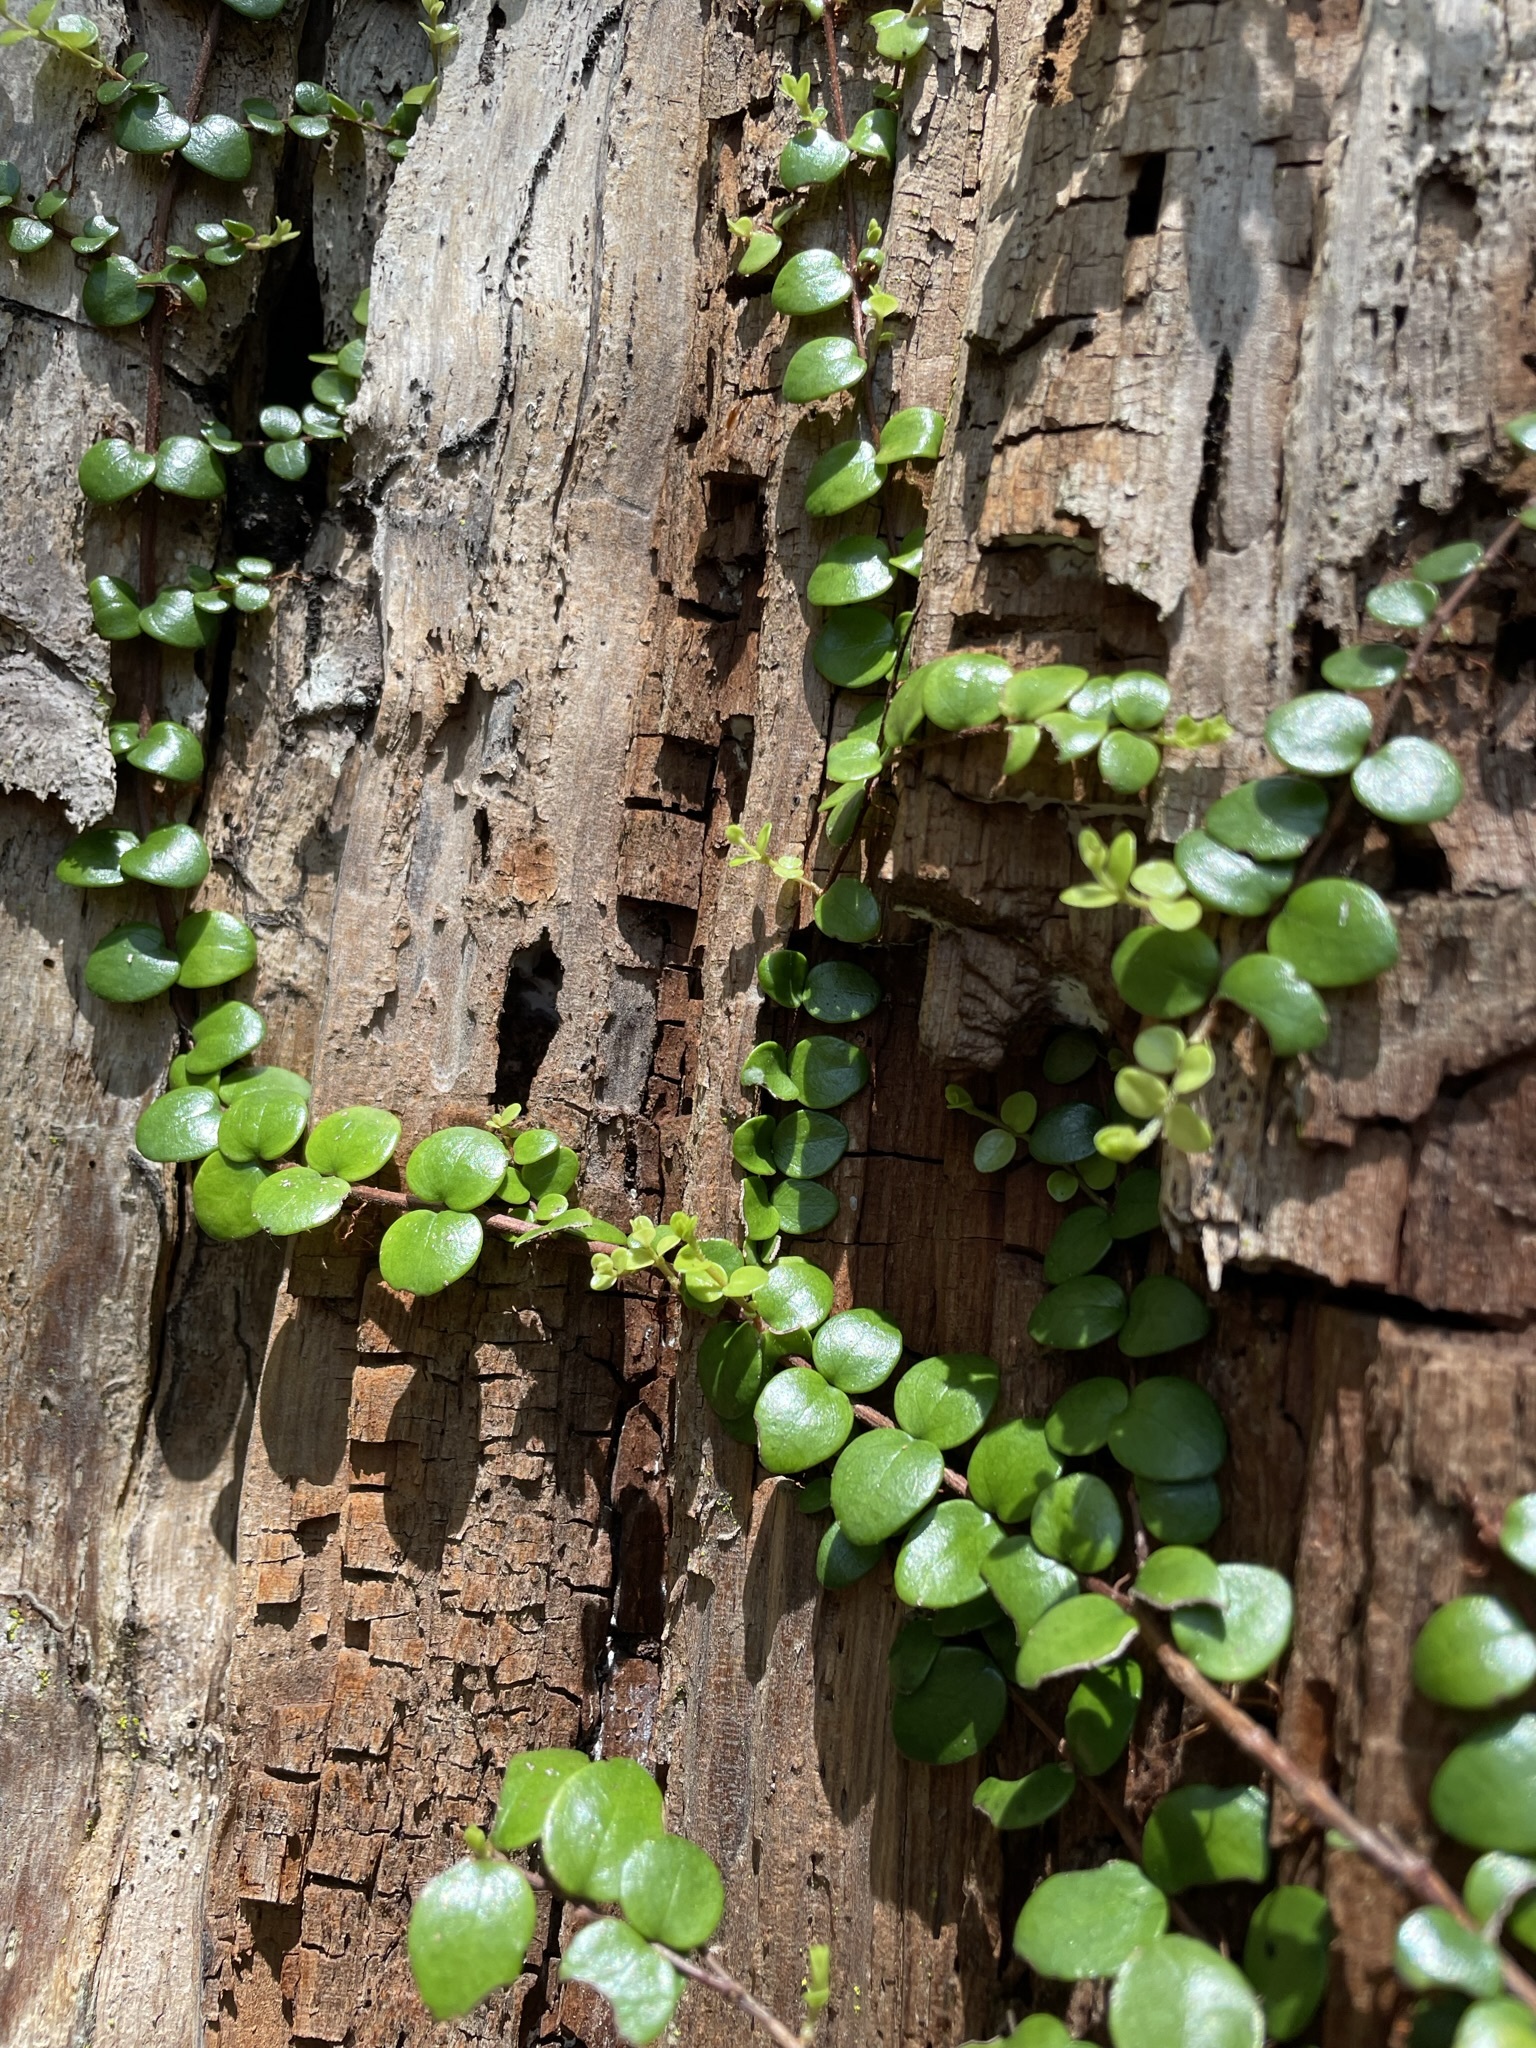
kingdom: Plantae
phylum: Tracheophyta
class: Magnoliopsida
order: Myrtales
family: Myrtaceae
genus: Metrosideros
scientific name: Metrosideros perforata
